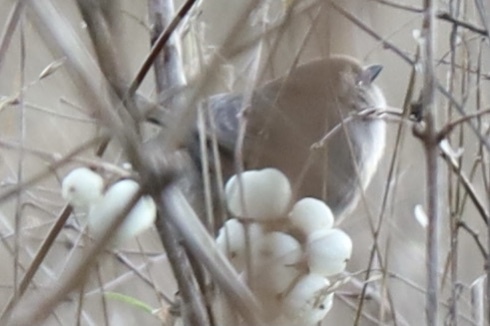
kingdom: Animalia
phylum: Chordata
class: Aves
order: Passeriformes
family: Aegithalidae
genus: Psaltriparus
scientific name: Psaltriparus minimus
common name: American bushtit
